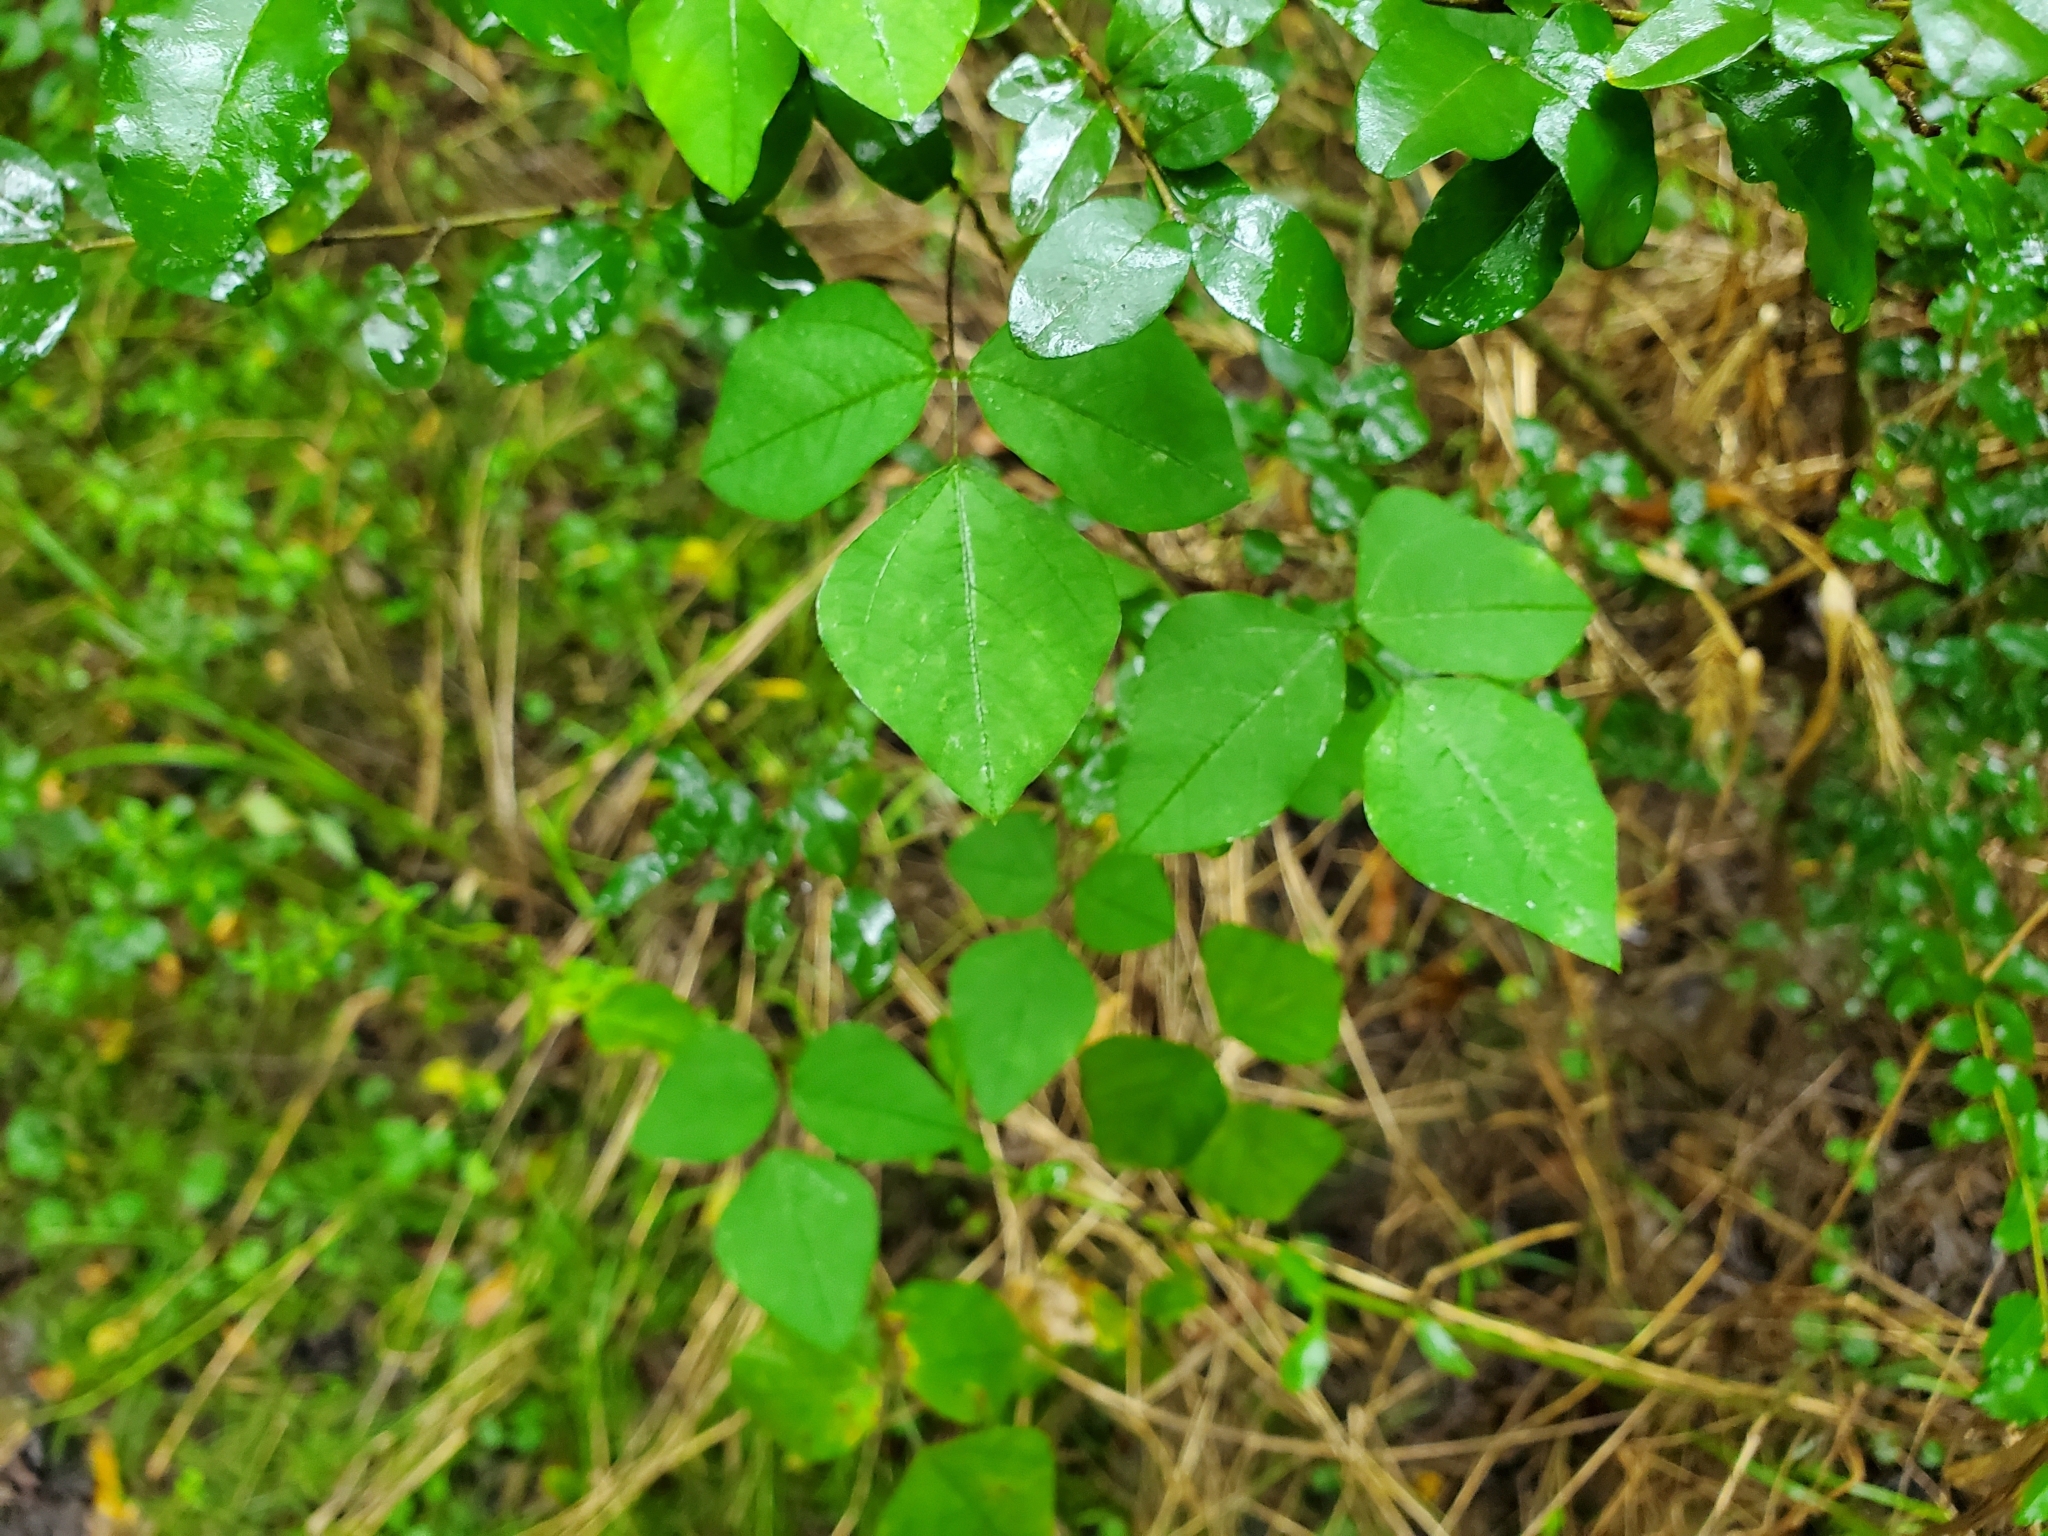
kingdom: Plantae
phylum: Tracheophyta
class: Magnoliopsida
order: Fabales
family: Fabaceae
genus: Amphicarpaea
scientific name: Amphicarpaea bracteata
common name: American hog peanut
